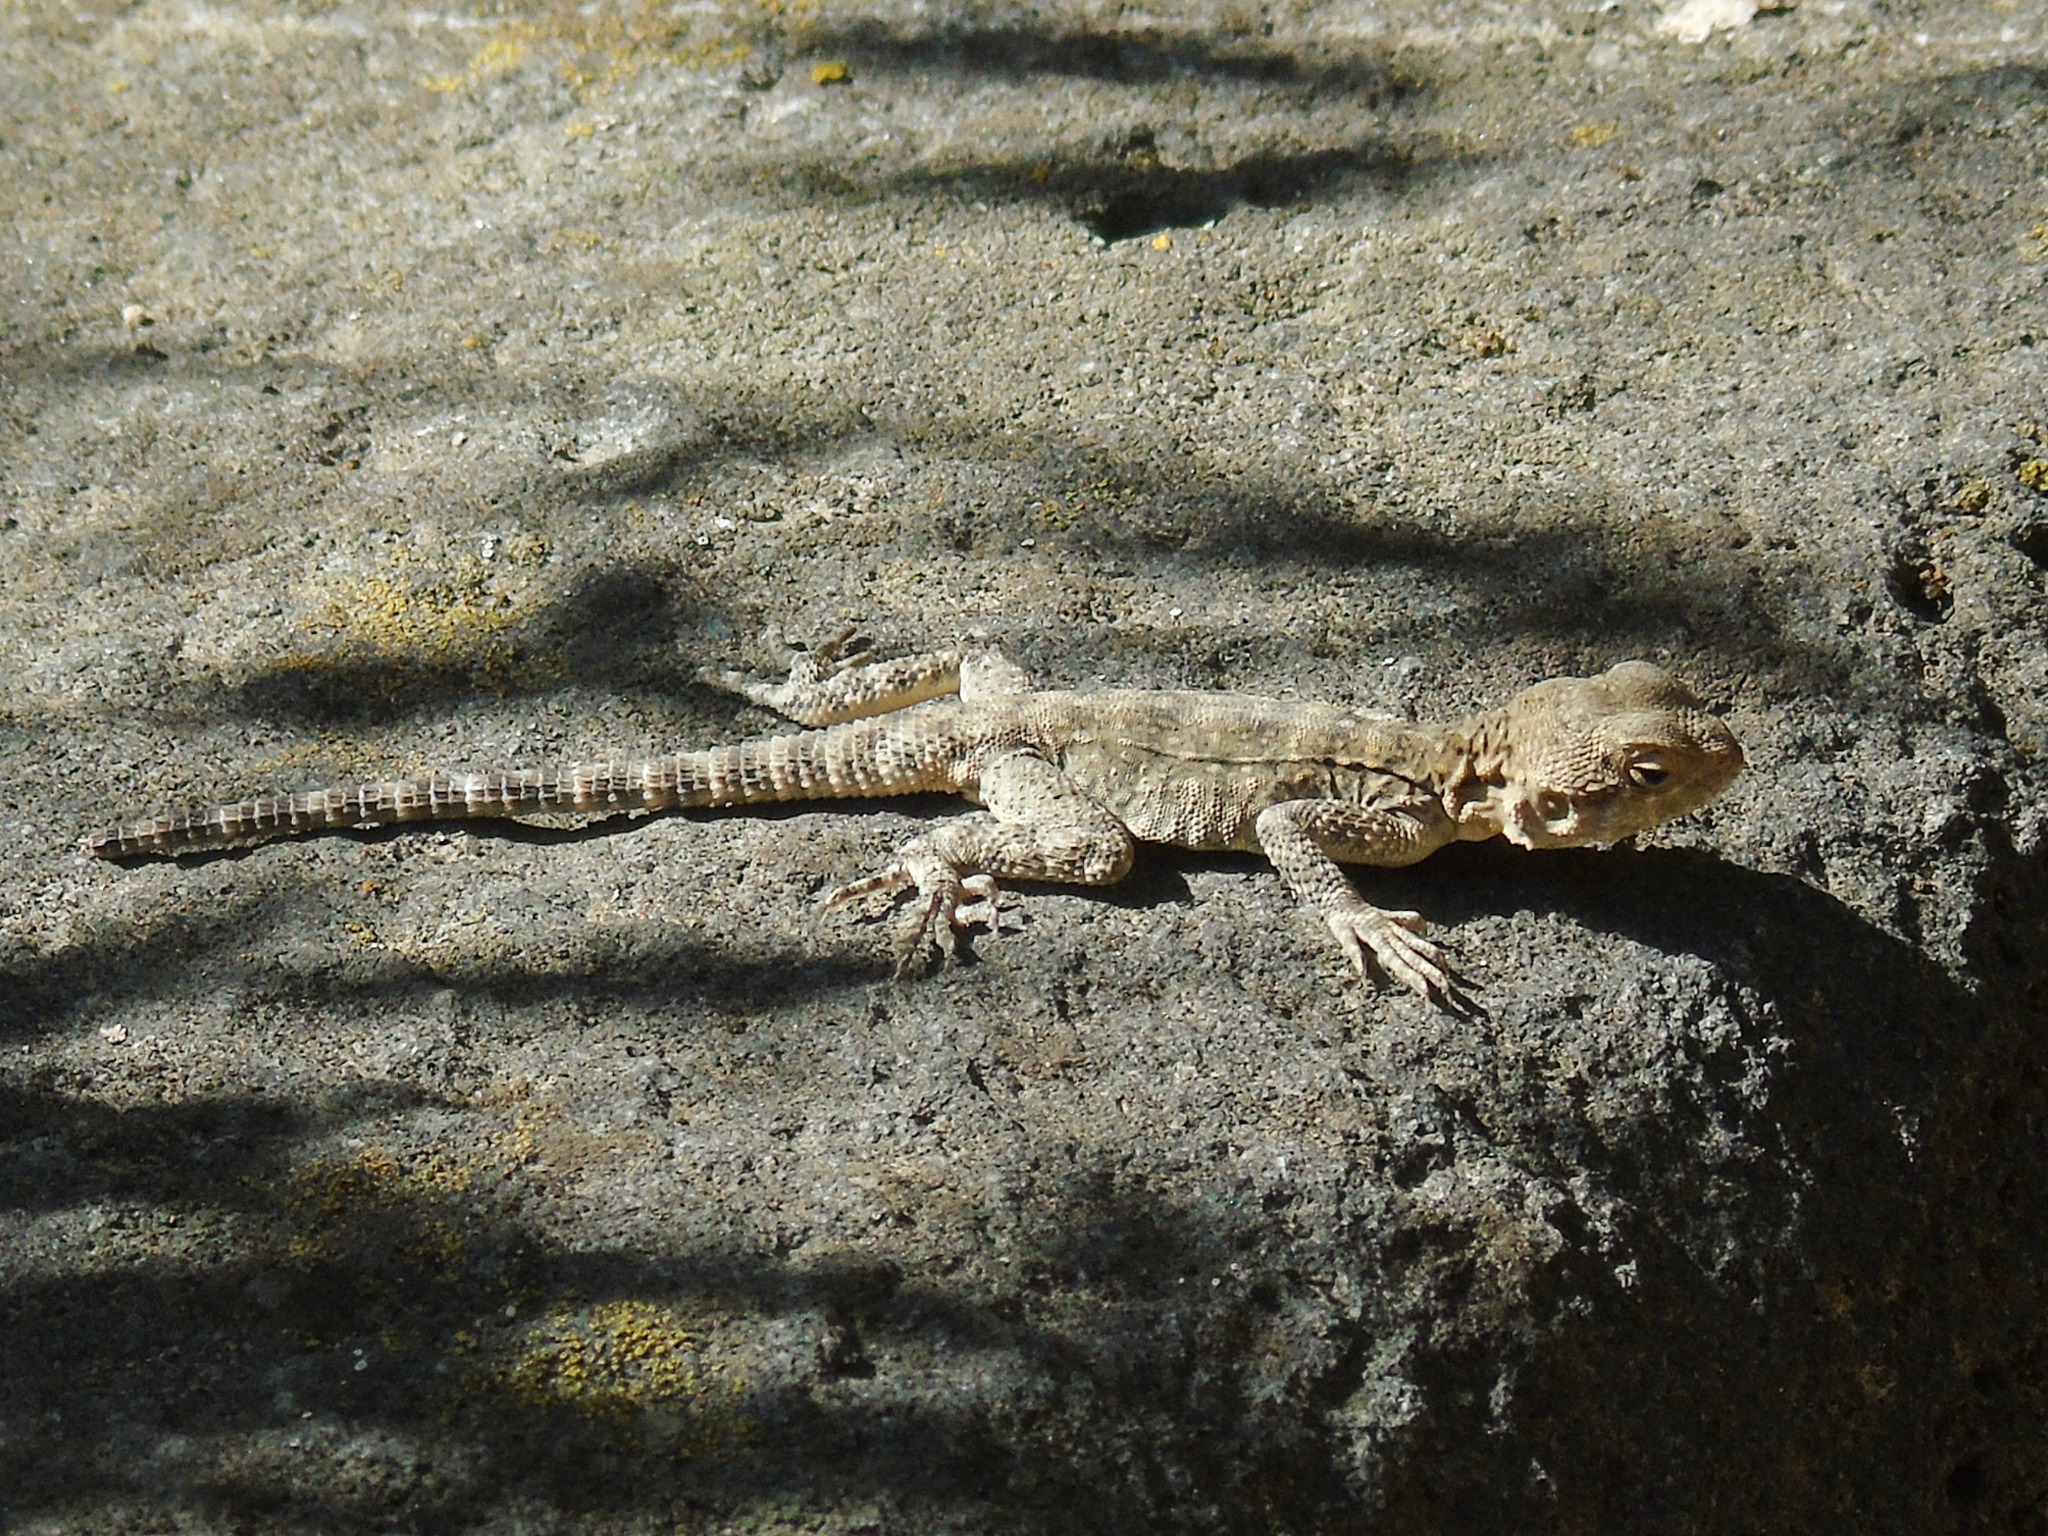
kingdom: Animalia
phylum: Chordata
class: Squamata
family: Agamidae
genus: Paralaudakia
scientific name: Paralaudakia caucasia
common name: Caucasian agama
